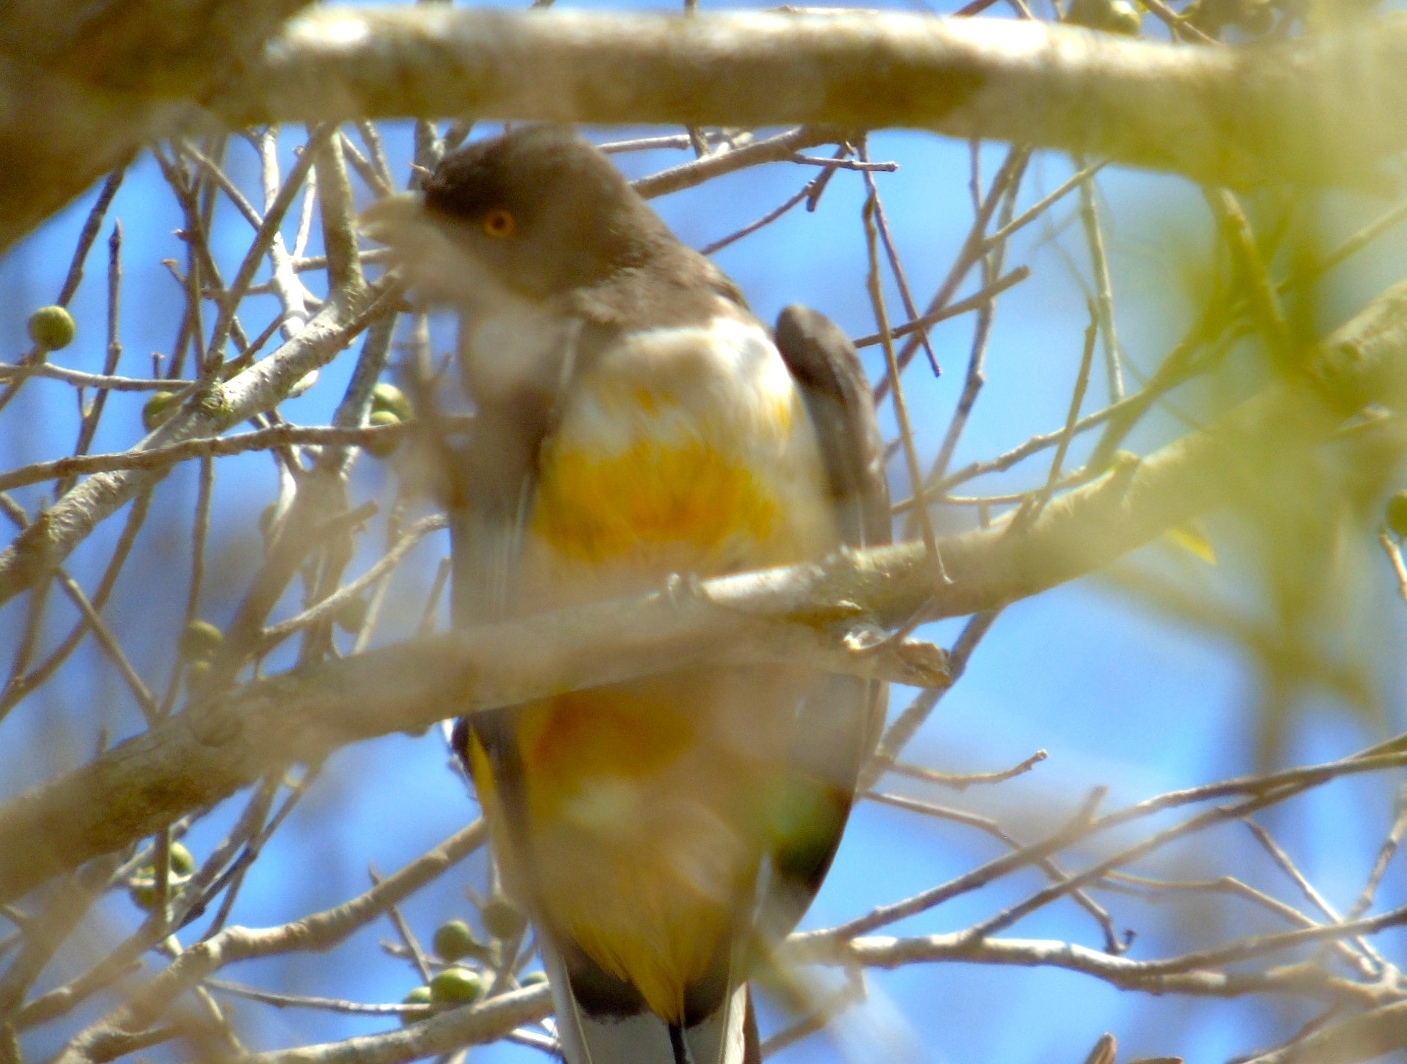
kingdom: Animalia
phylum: Chordata
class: Aves
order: Trogoniformes
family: Trogonidae
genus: Trogon
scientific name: Trogon citreolus
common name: Citreoline trogon
